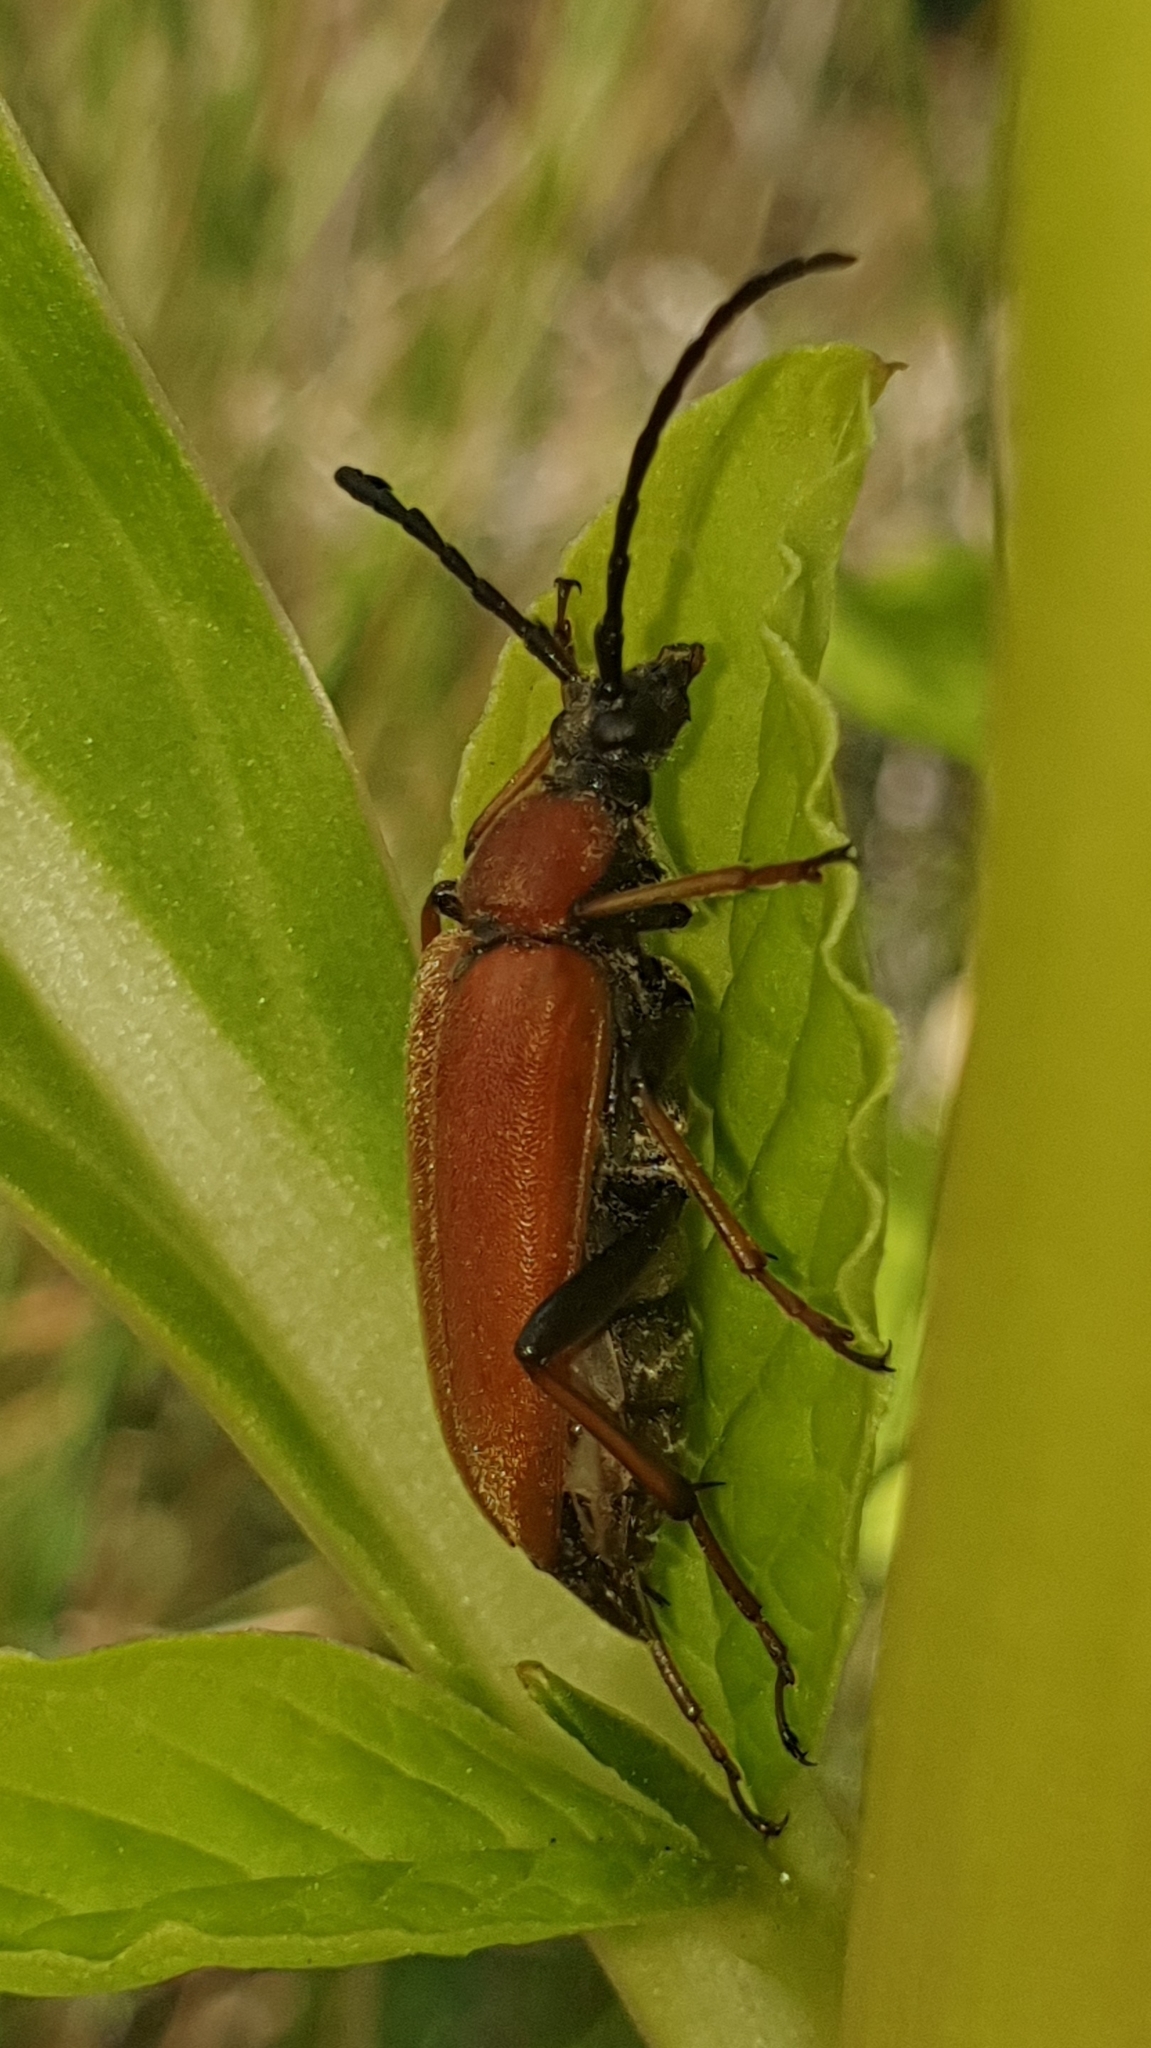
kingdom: Animalia
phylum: Arthropoda
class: Insecta
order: Coleoptera
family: Cerambycidae
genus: Stictoleptura
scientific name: Stictoleptura rubra
